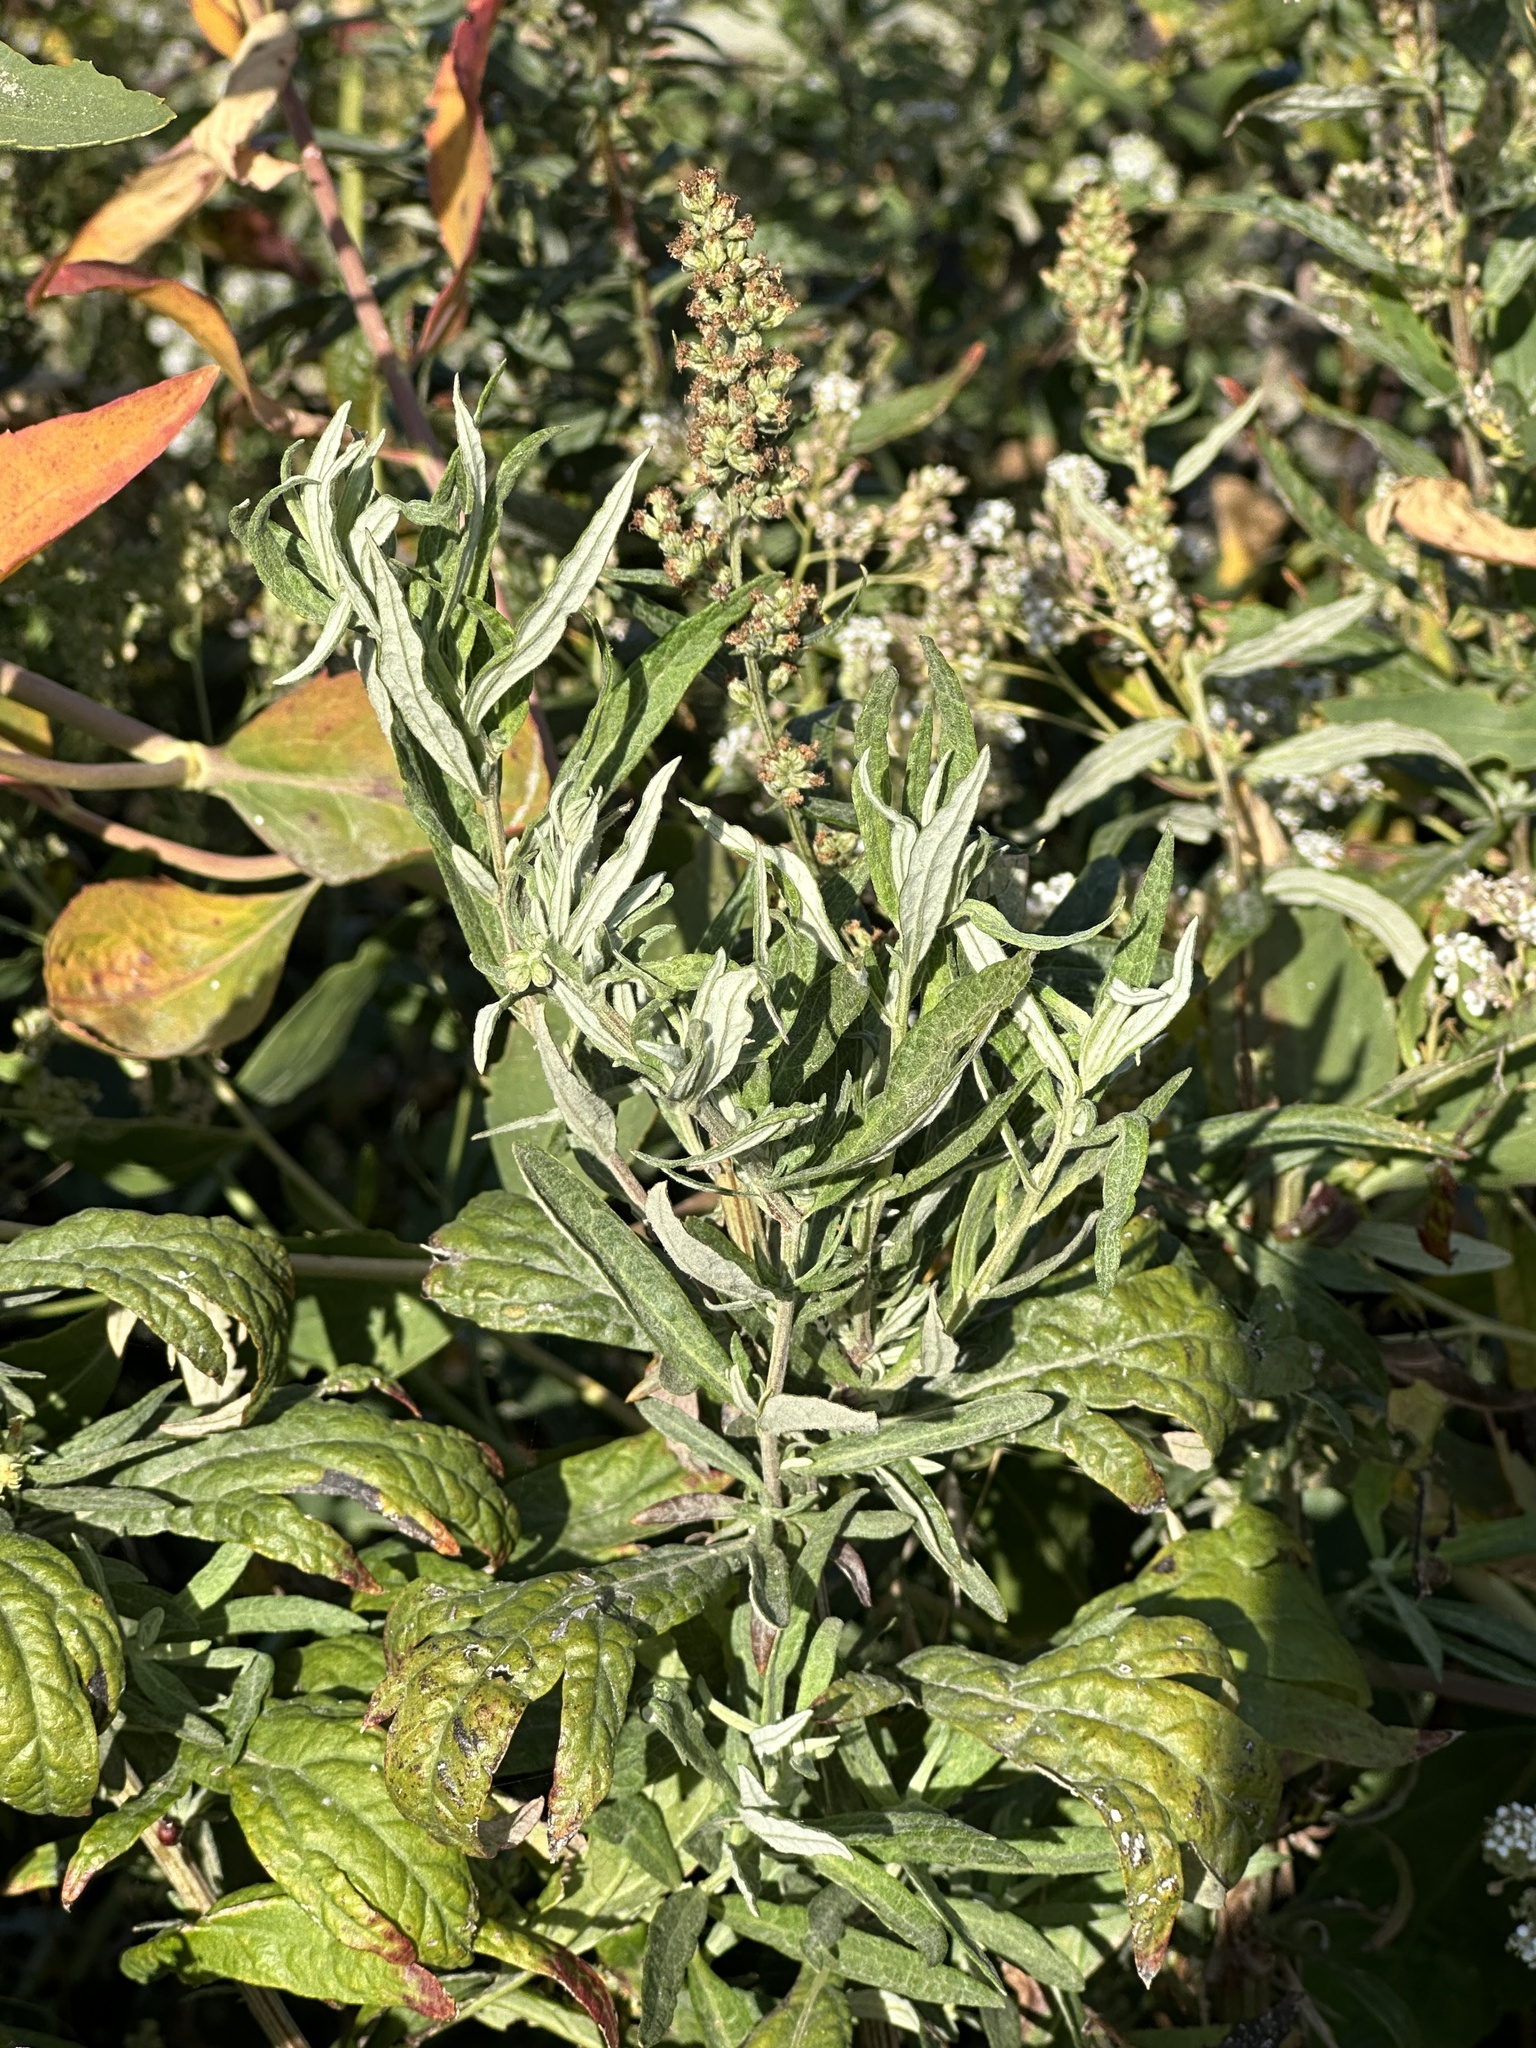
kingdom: Plantae
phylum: Tracheophyta
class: Magnoliopsida
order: Asterales
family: Asteraceae
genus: Artemisia
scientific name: Artemisia douglasiana
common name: Northwest mugwort
